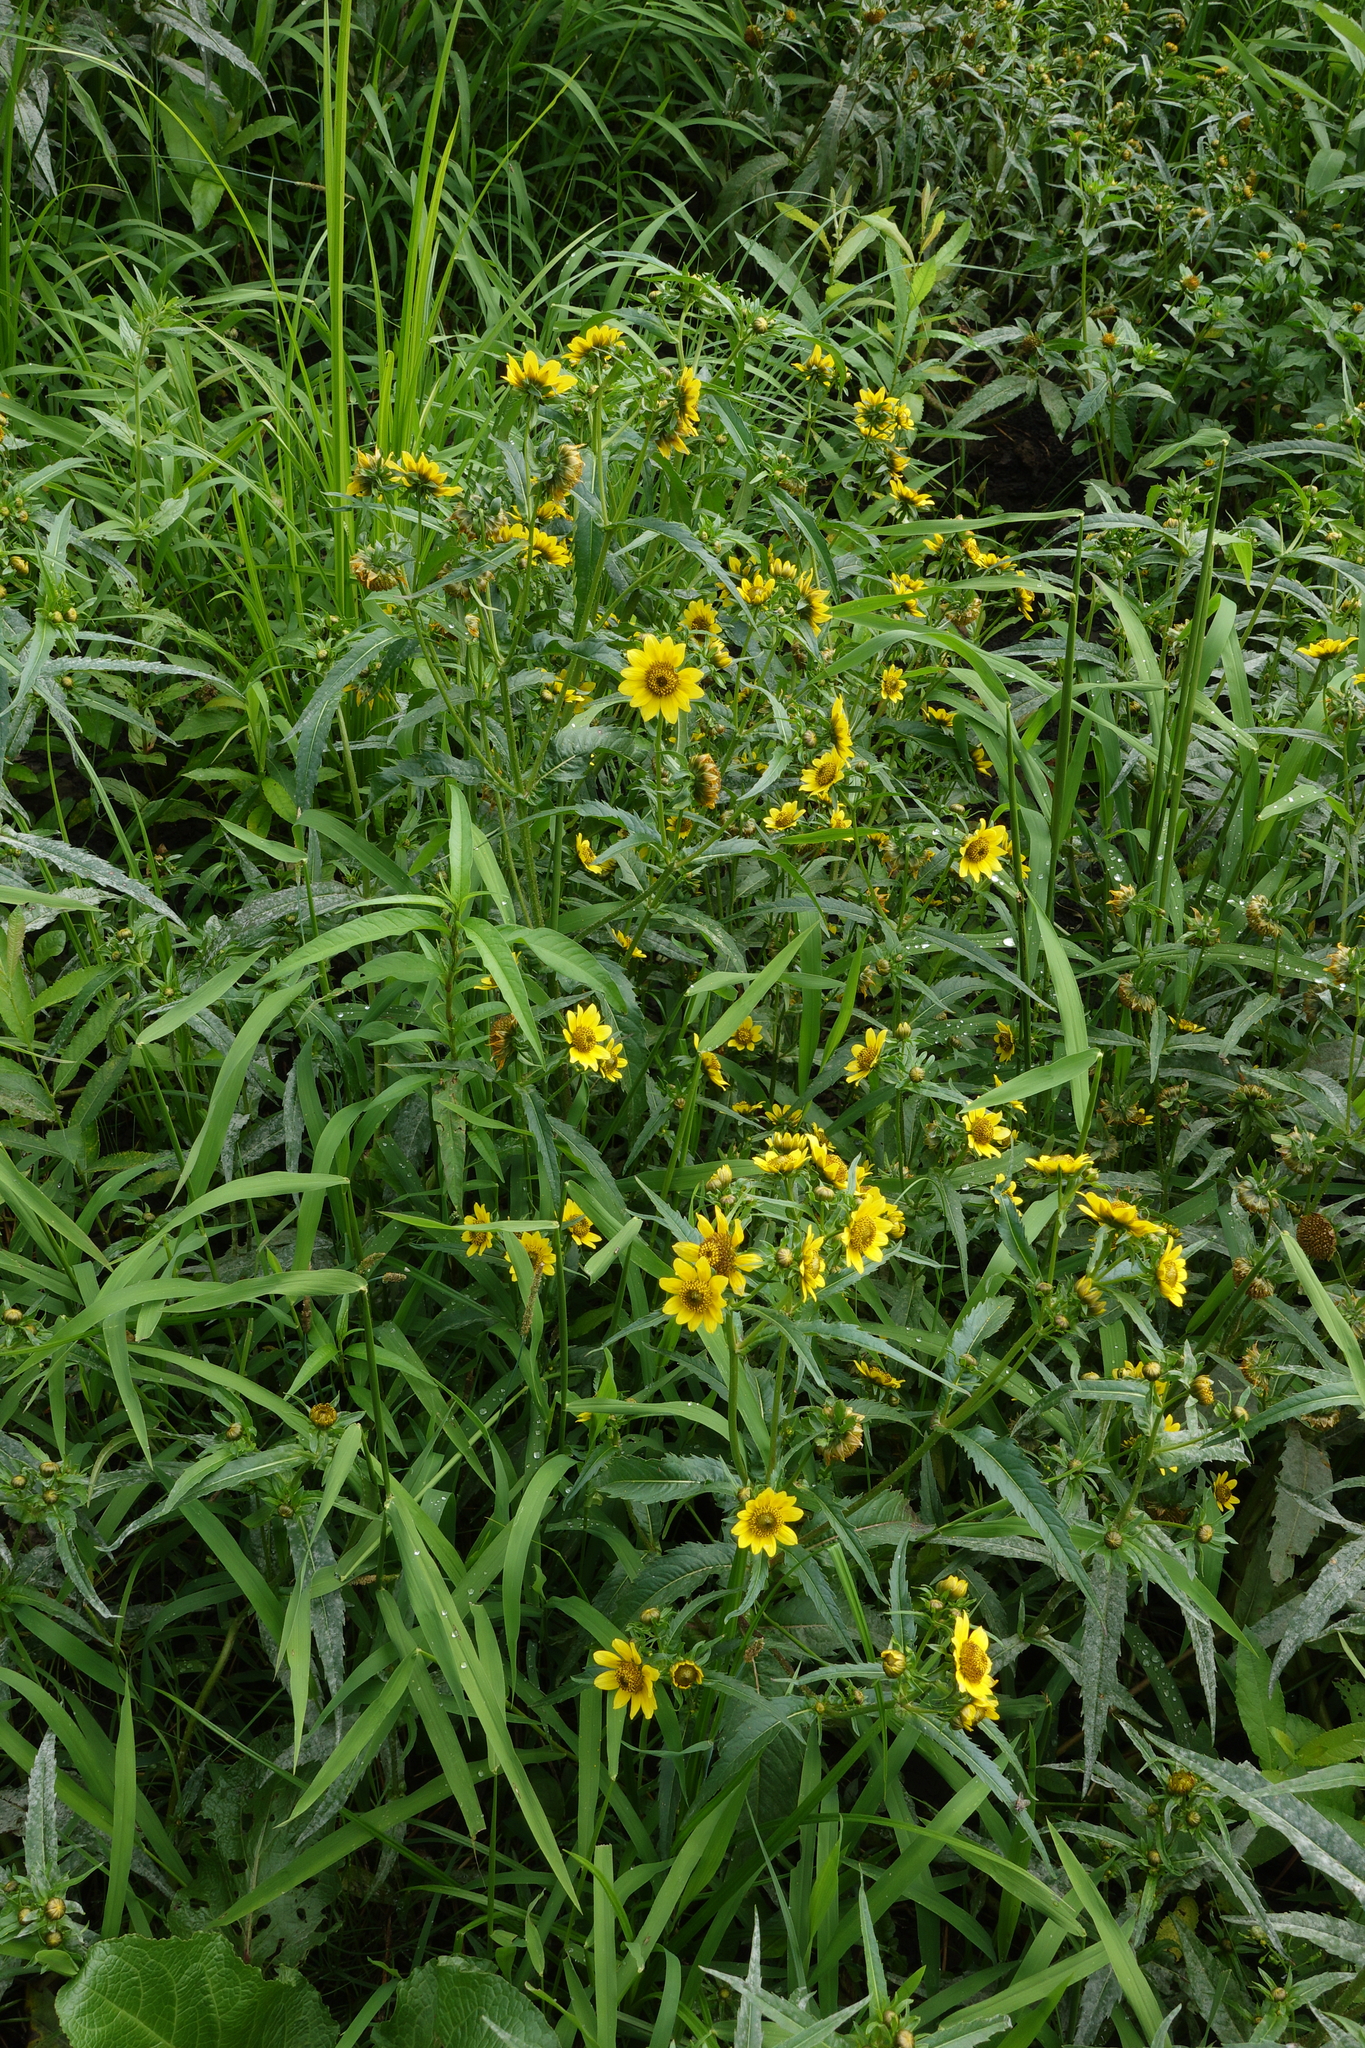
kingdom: Plantae
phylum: Tracheophyta
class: Magnoliopsida
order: Asterales
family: Asteraceae
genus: Bidens
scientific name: Bidens cernua
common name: Nodding bur-marigold
